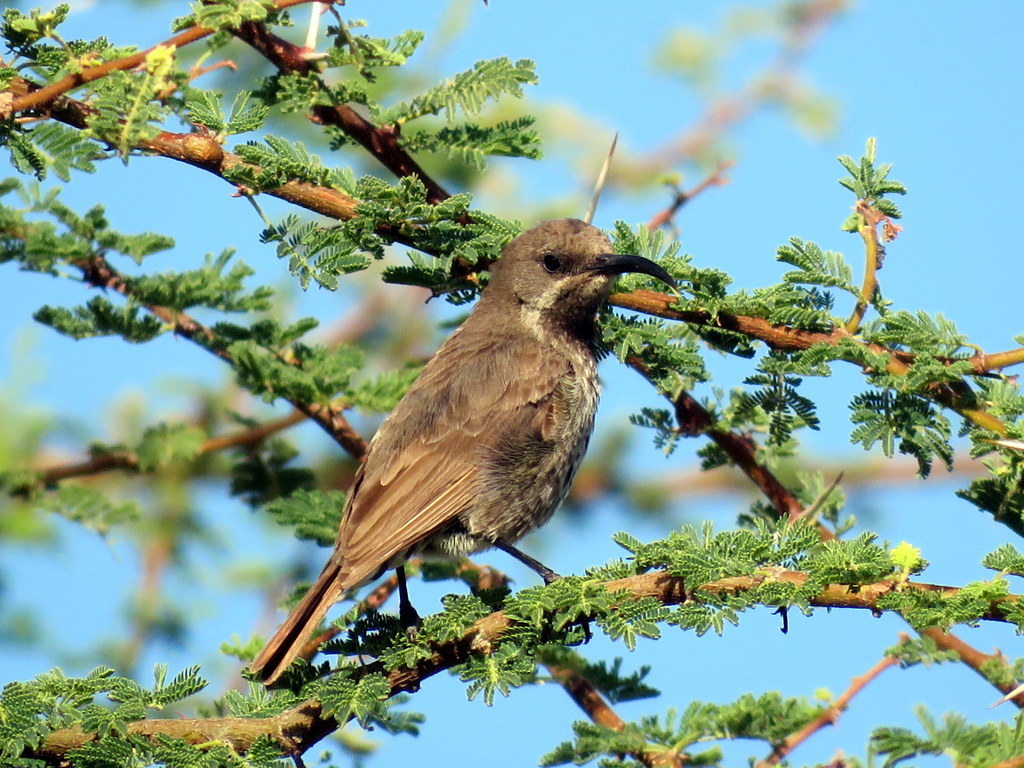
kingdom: Animalia
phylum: Chordata
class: Aves
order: Passeriformes
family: Nectariniidae
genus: Chalcomitra
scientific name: Chalcomitra senegalensis
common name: Scarlet-chested sunbird
